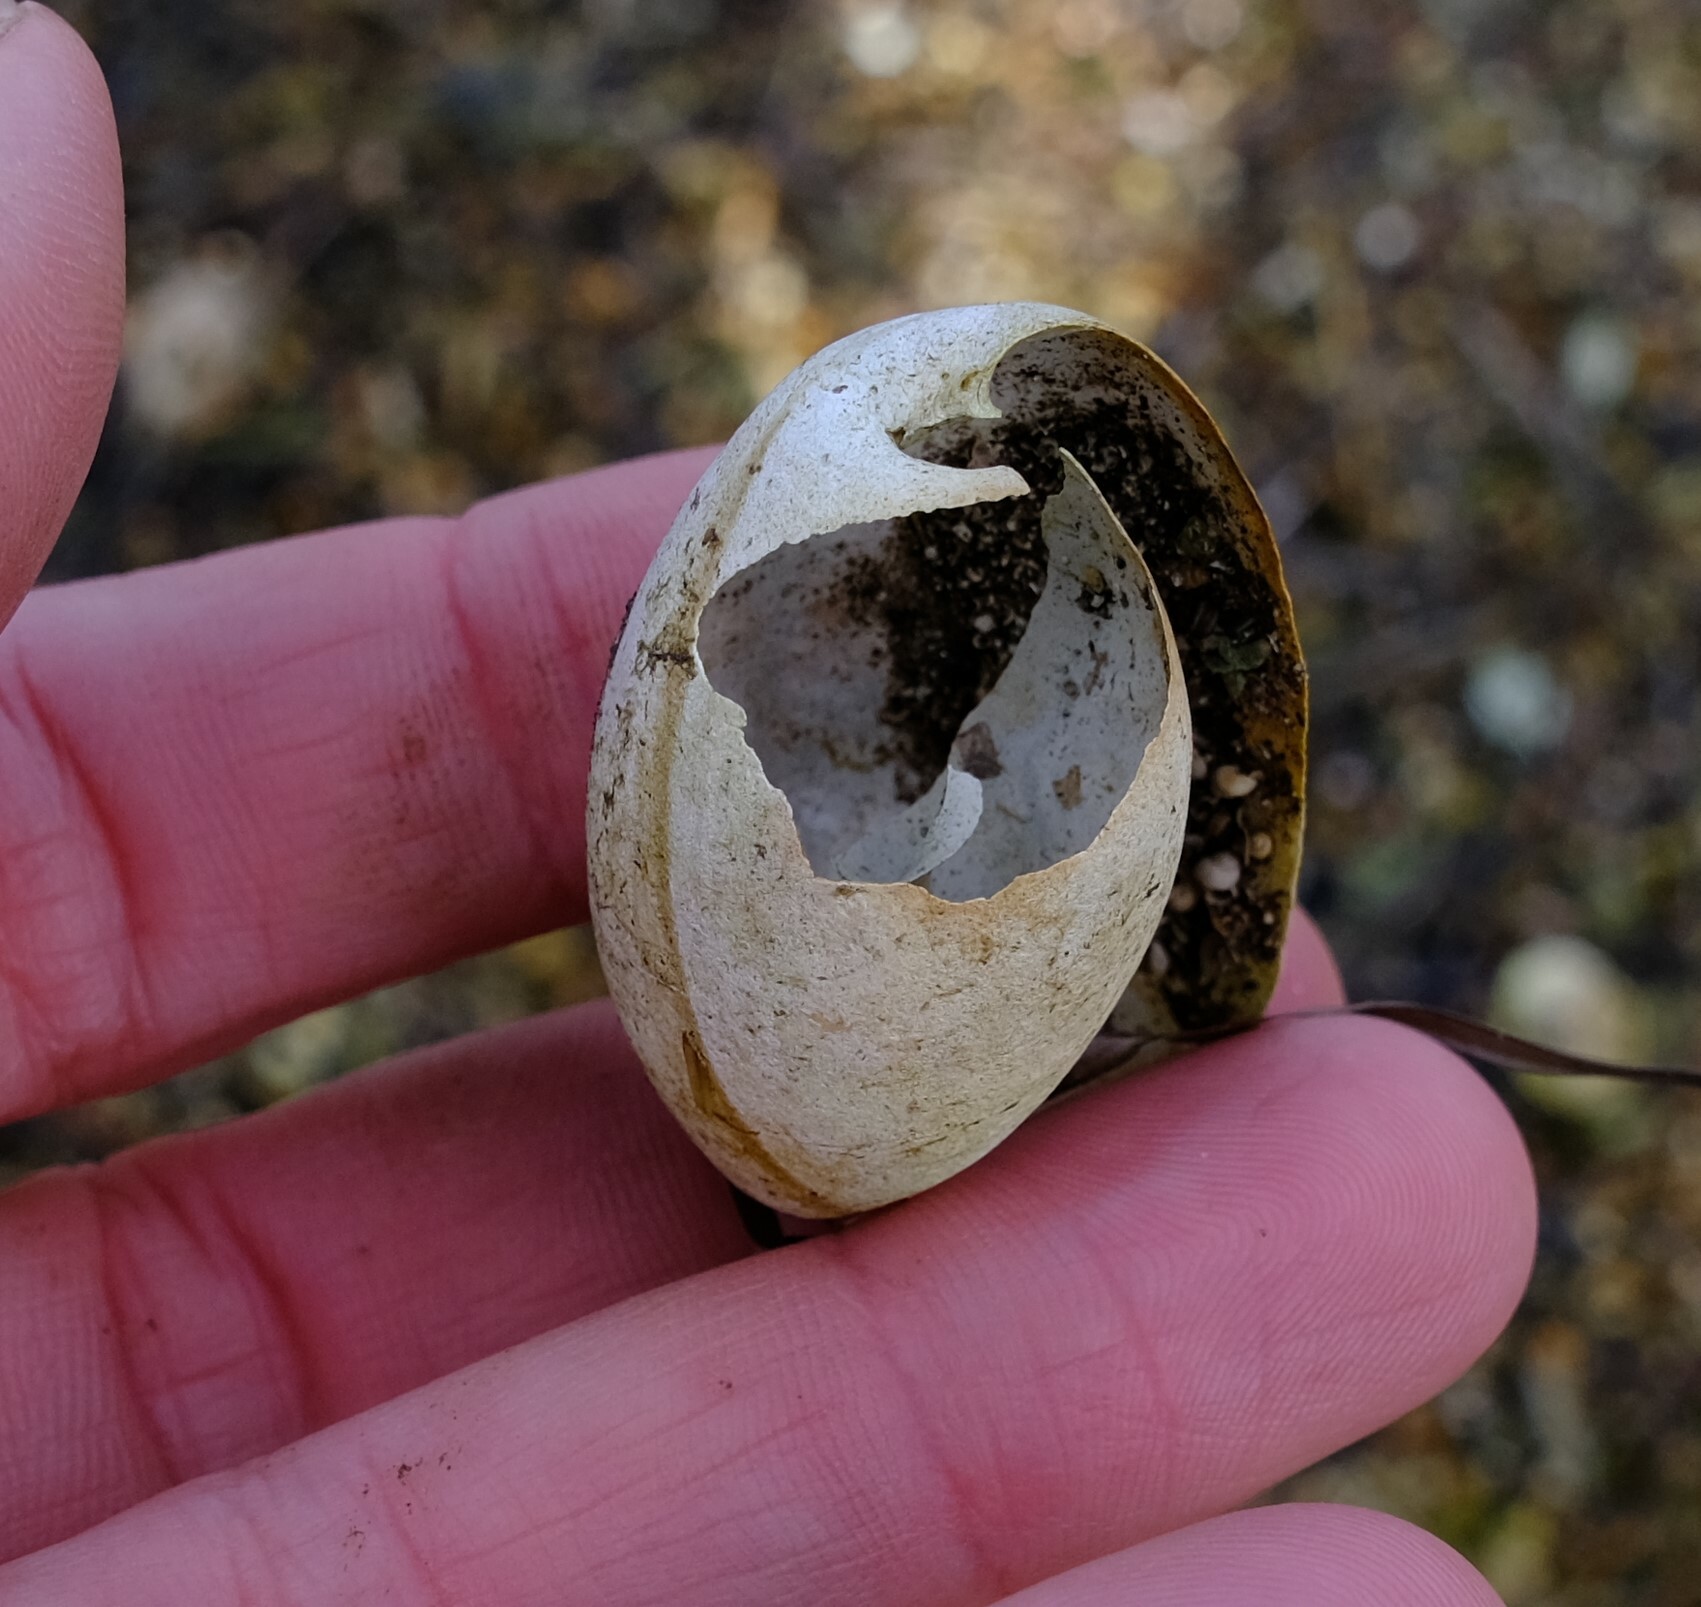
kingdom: Animalia
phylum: Mollusca
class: Gastropoda
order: Cephalaspidea
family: Bullidae
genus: Bulla
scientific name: Bulla quoyii
